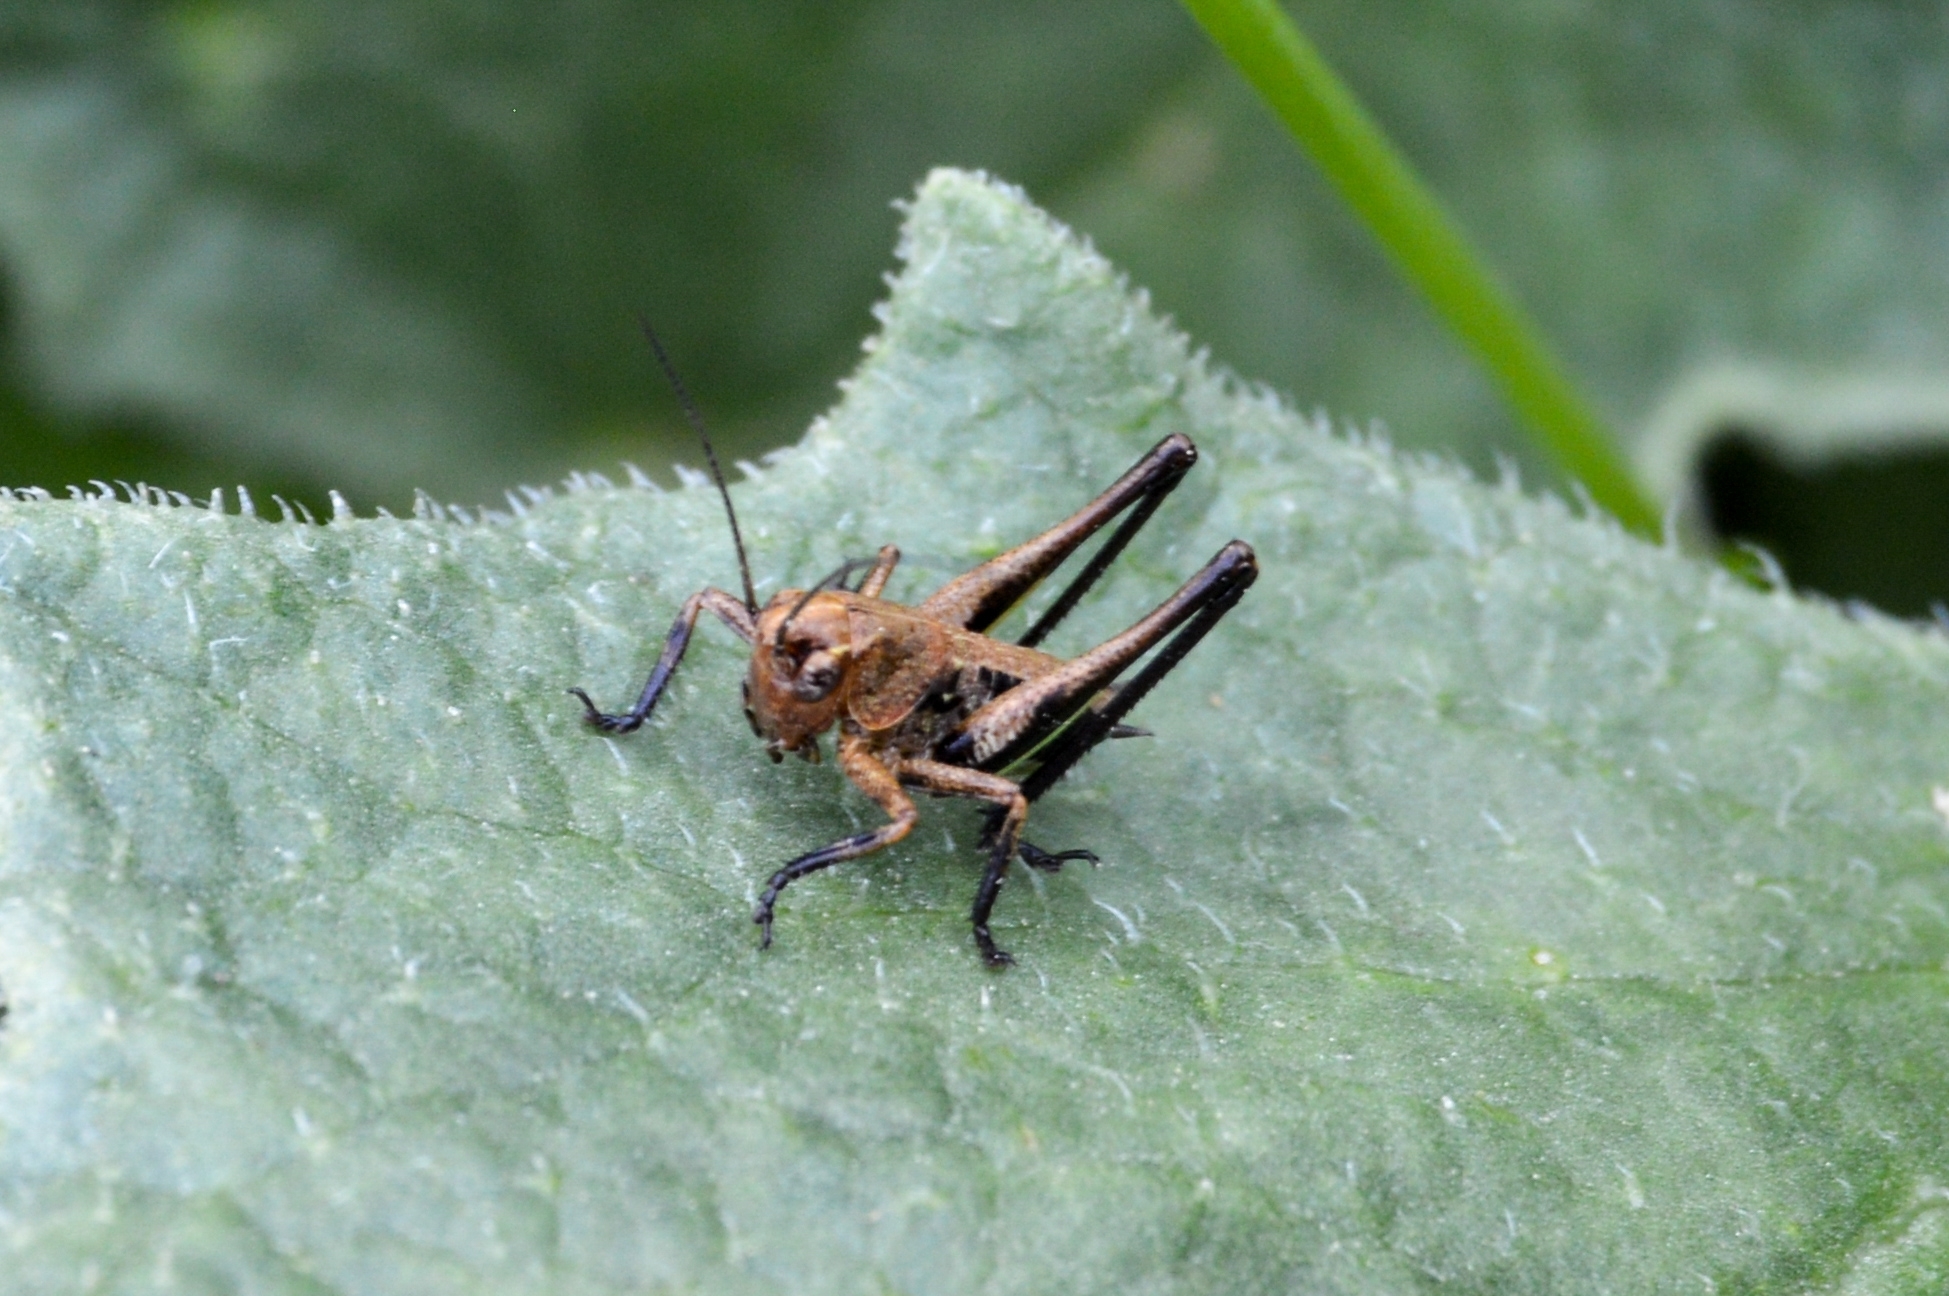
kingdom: Animalia
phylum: Arthropoda
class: Insecta
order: Orthoptera
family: Tettigoniidae
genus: Decticus
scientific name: Decticus albifrons
